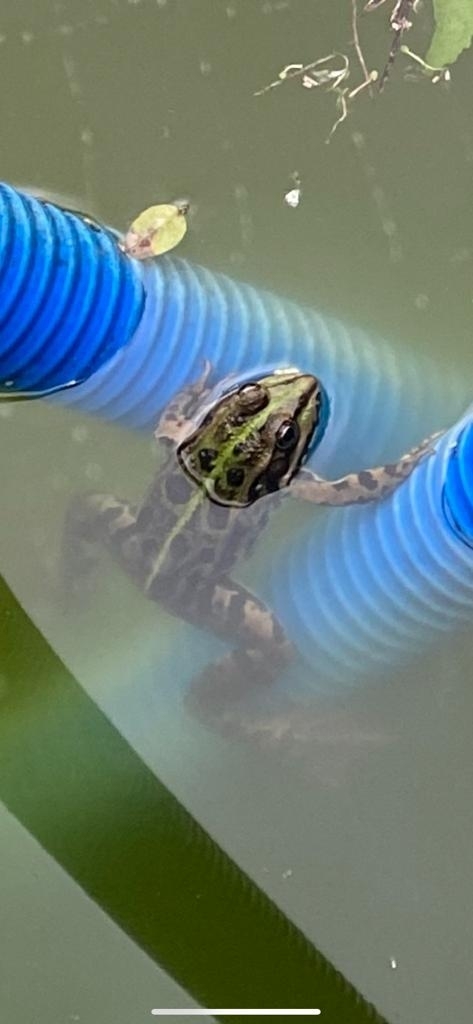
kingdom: Animalia
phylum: Chordata
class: Amphibia
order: Anura
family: Ranidae
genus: Pelophylax
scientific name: Pelophylax
